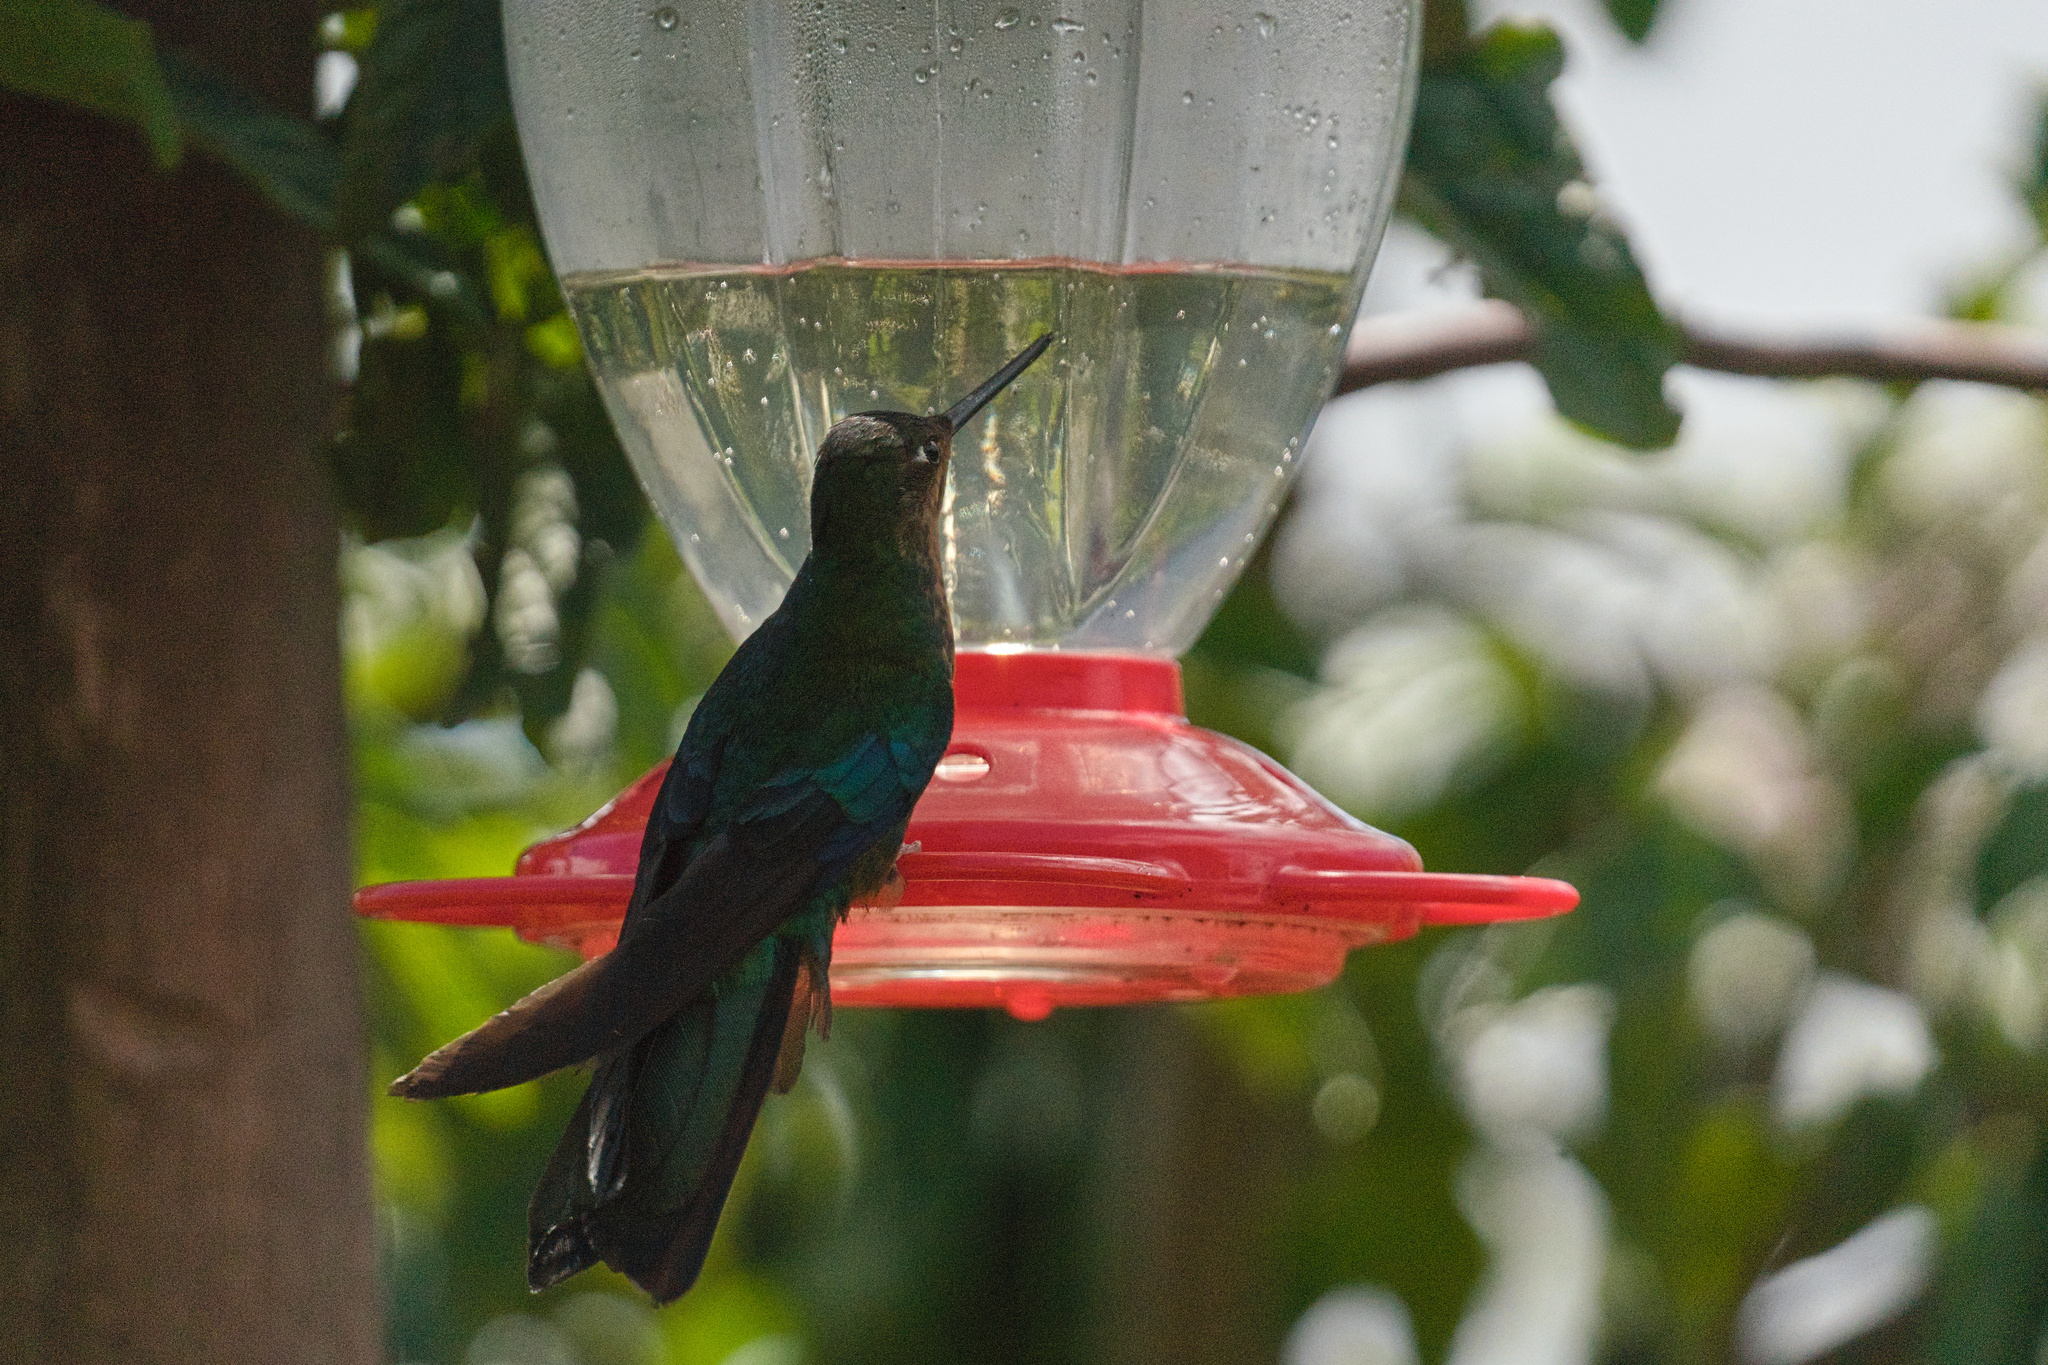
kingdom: Animalia
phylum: Chordata
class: Aves
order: Apodiformes
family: Trochilidae
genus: Pterophanes
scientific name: Pterophanes cyanopterus
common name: Great sapphirewing
